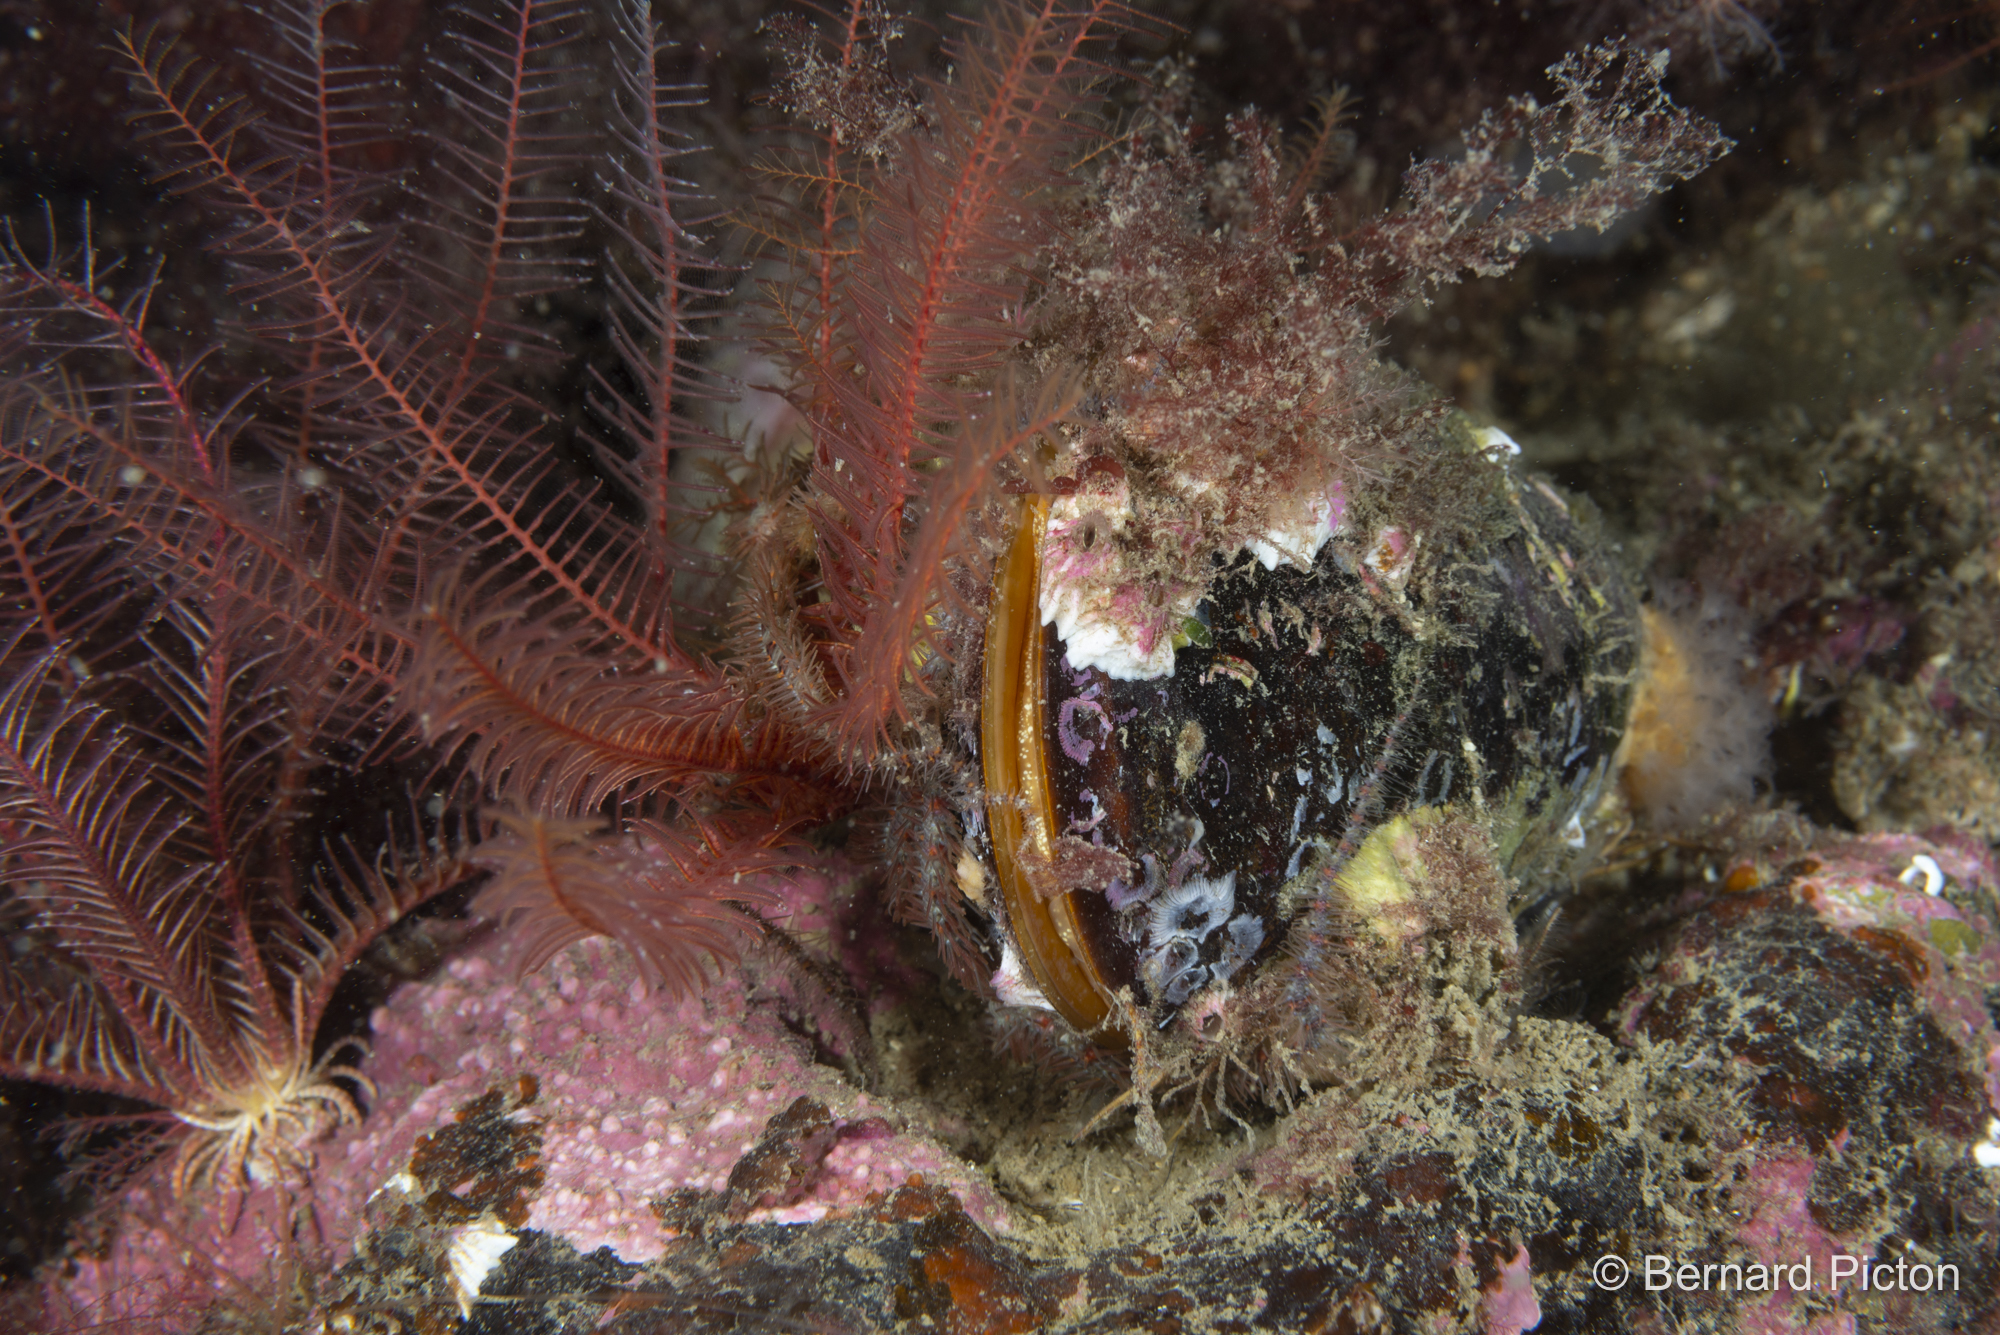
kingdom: Animalia
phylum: Mollusca
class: Bivalvia
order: Mytilida
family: Mytilidae
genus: Modiolus
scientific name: Modiolus modiolus
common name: Horse-mussel
